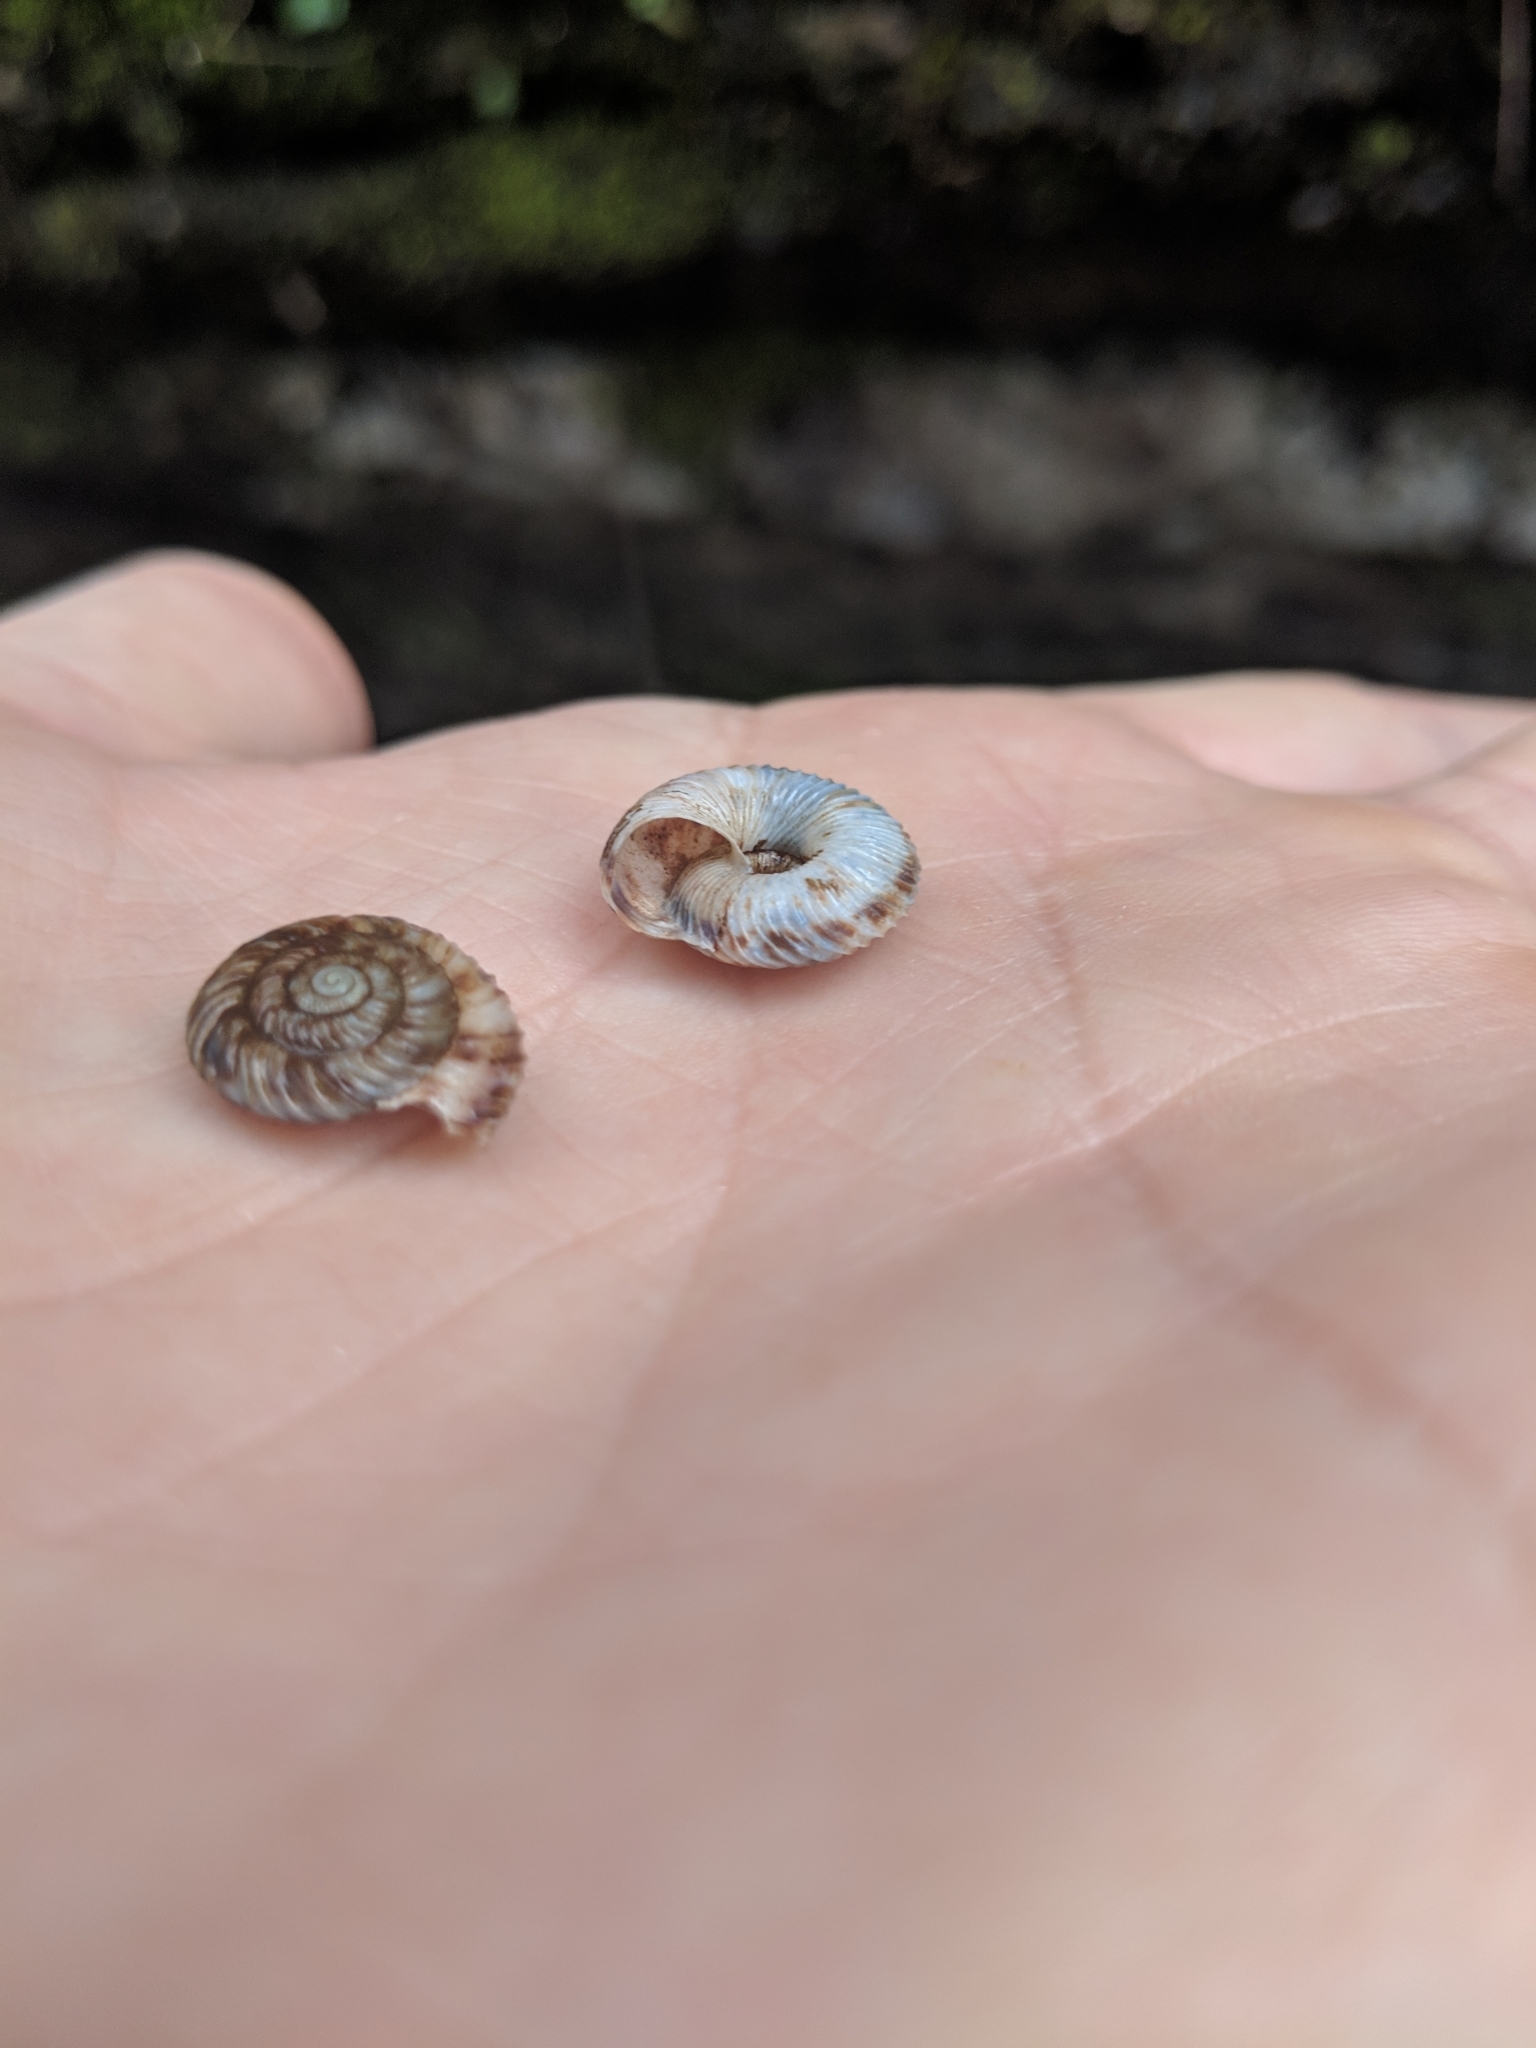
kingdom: Animalia
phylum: Mollusca
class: Gastropoda
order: Stylommatophora
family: Discidae
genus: Anguispira
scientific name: Anguispira mordax
